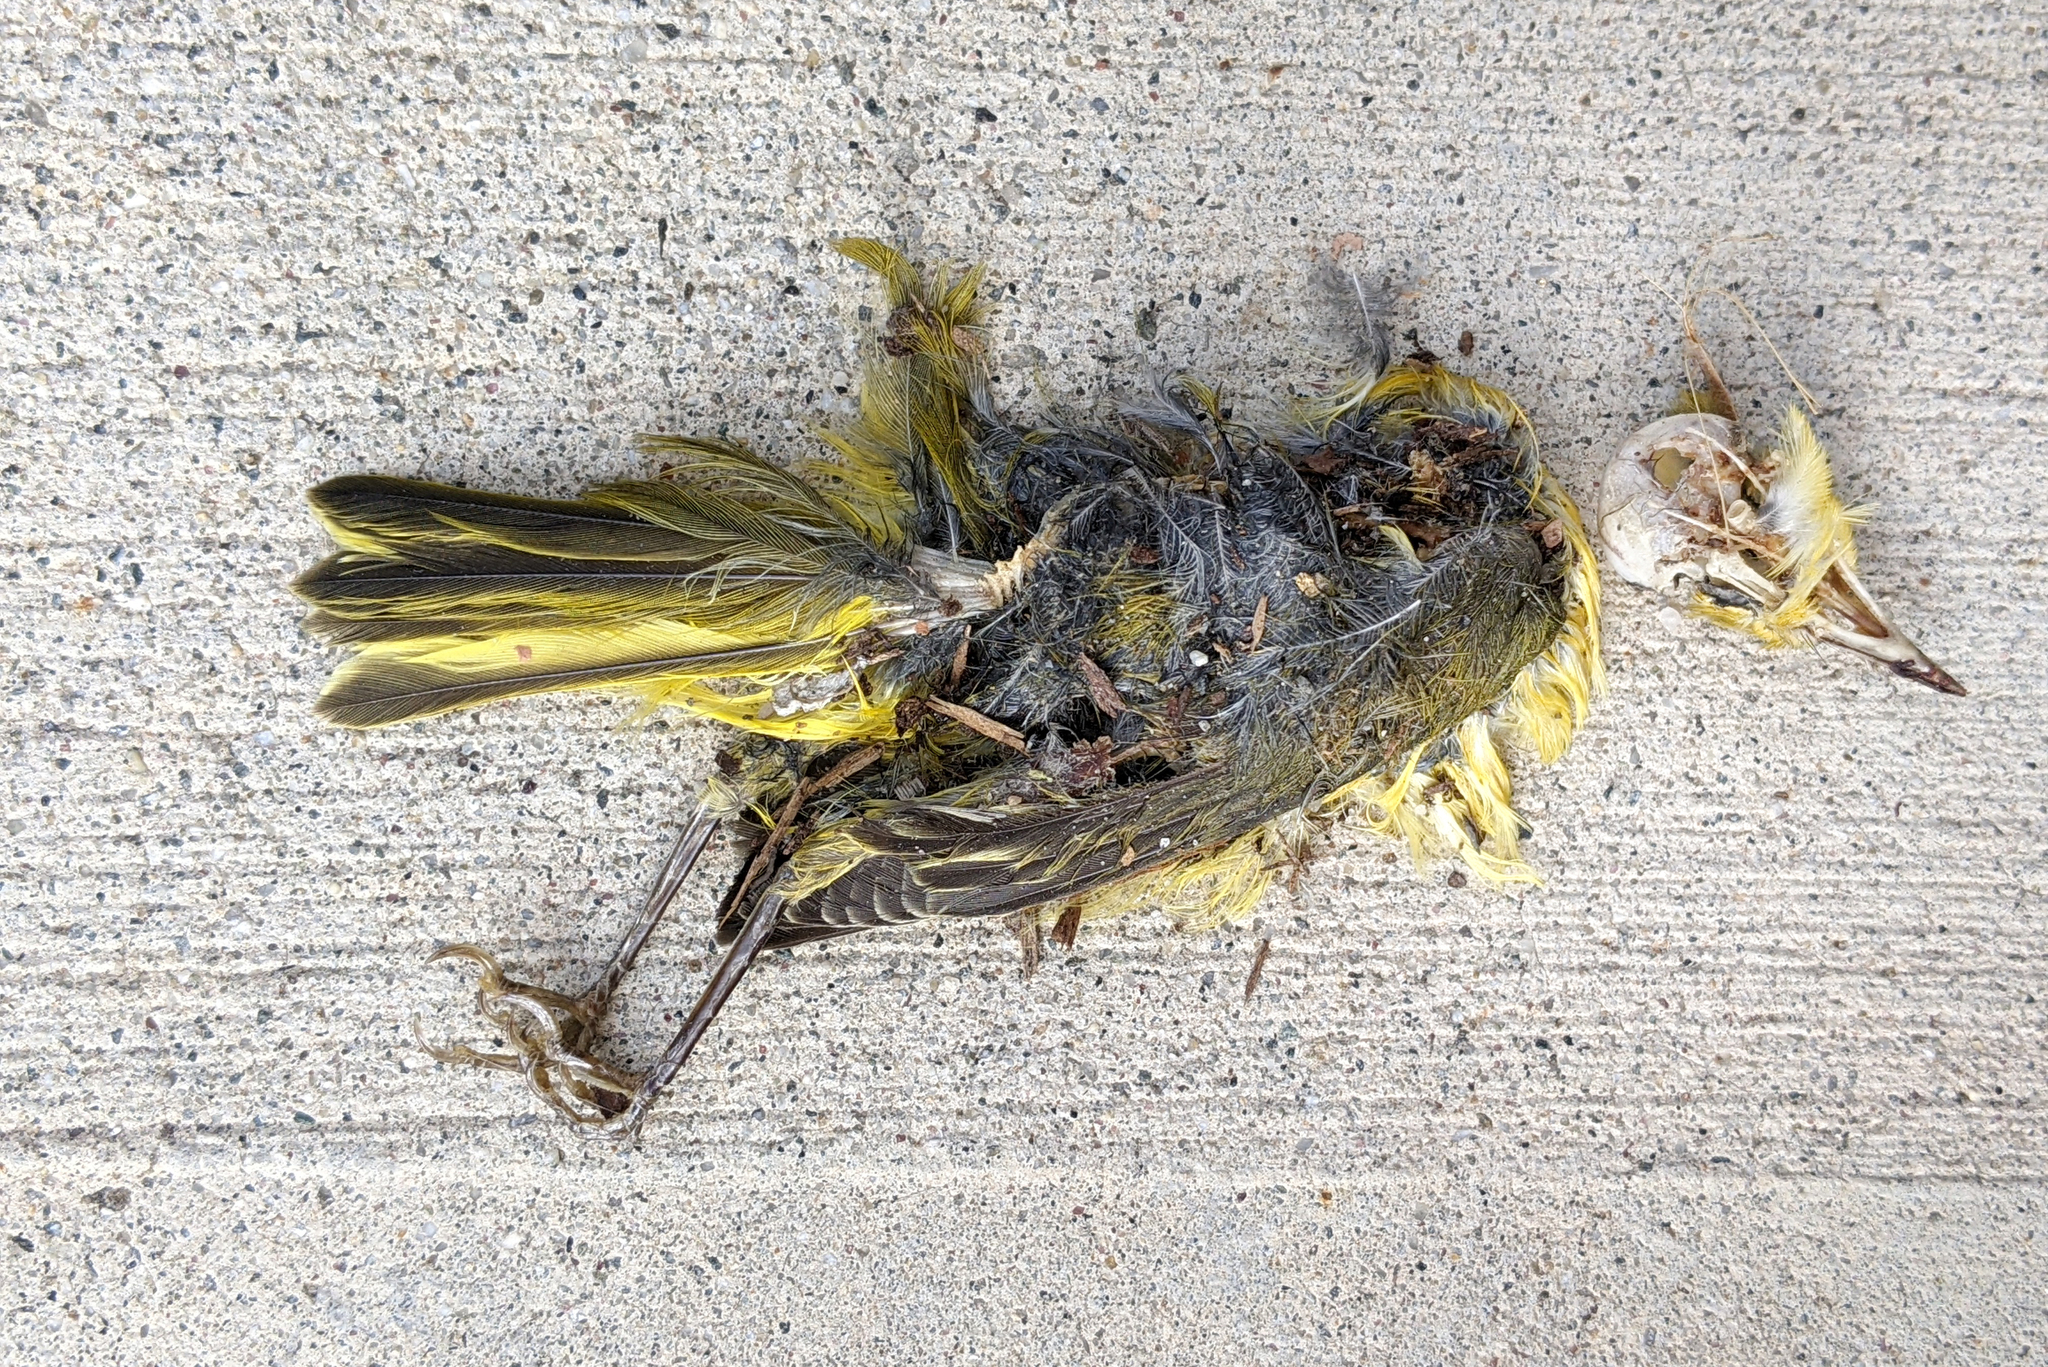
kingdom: Animalia
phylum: Chordata
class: Aves
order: Passeriformes
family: Parulidae
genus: Setophaga
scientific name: Setophaga petechia
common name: Yellow warbler
